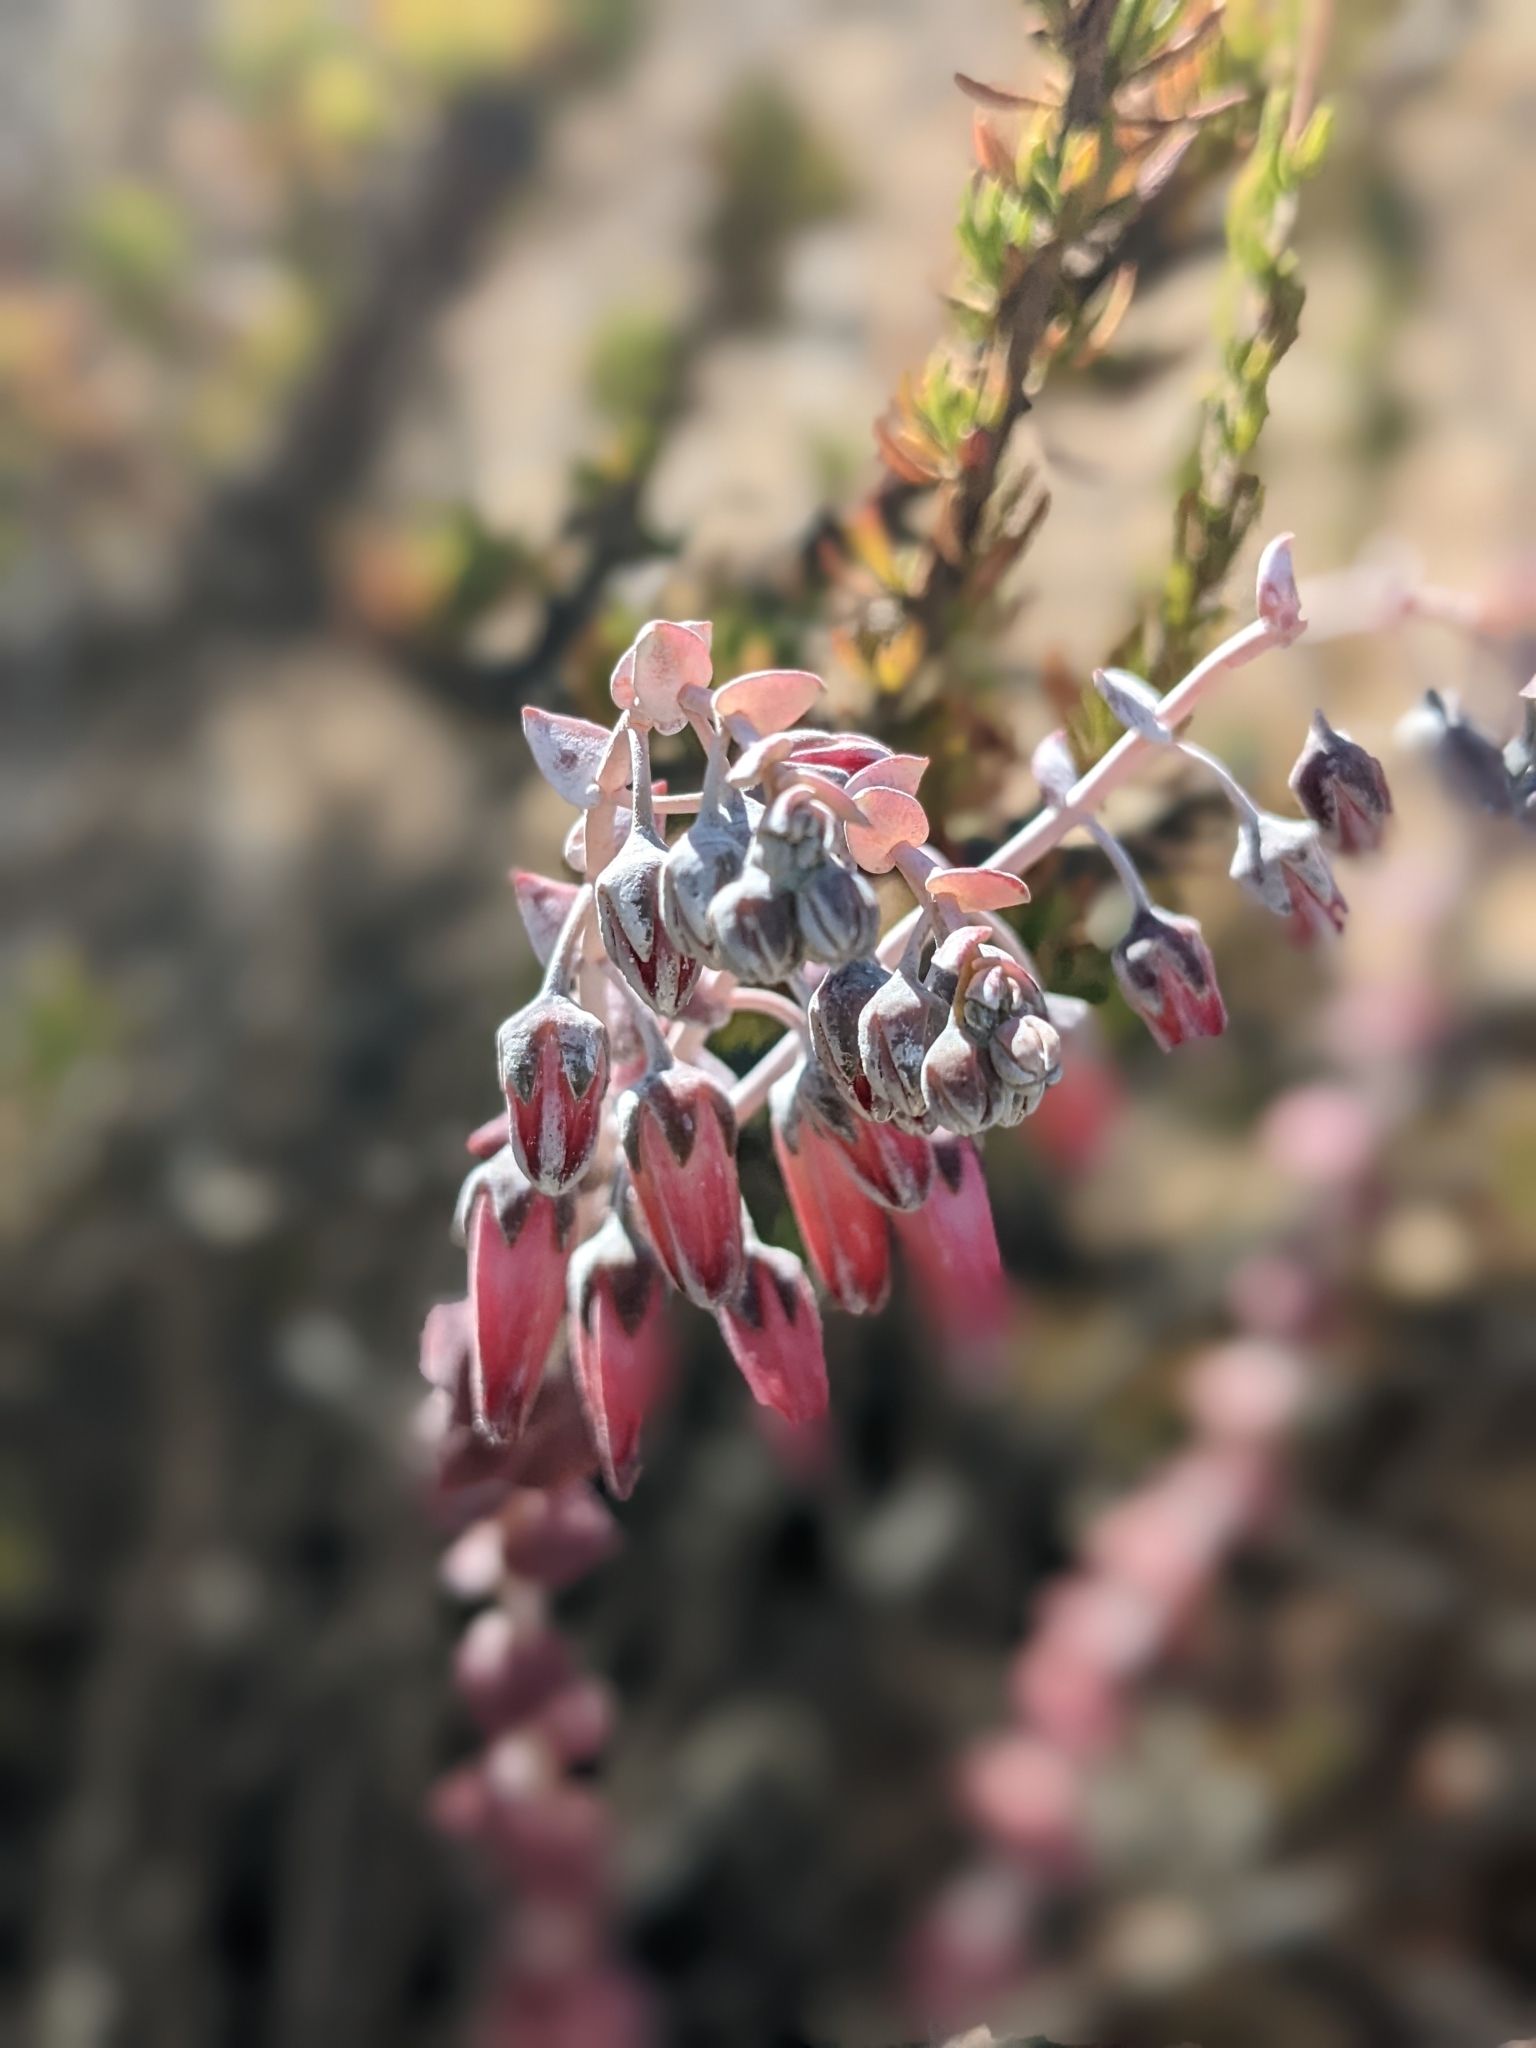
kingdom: Plantae
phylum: Tracheophyta
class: Magnoliopsida
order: Saxifragales
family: Crassulaceae
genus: Dudleya
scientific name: Dudleya pulverulenta
